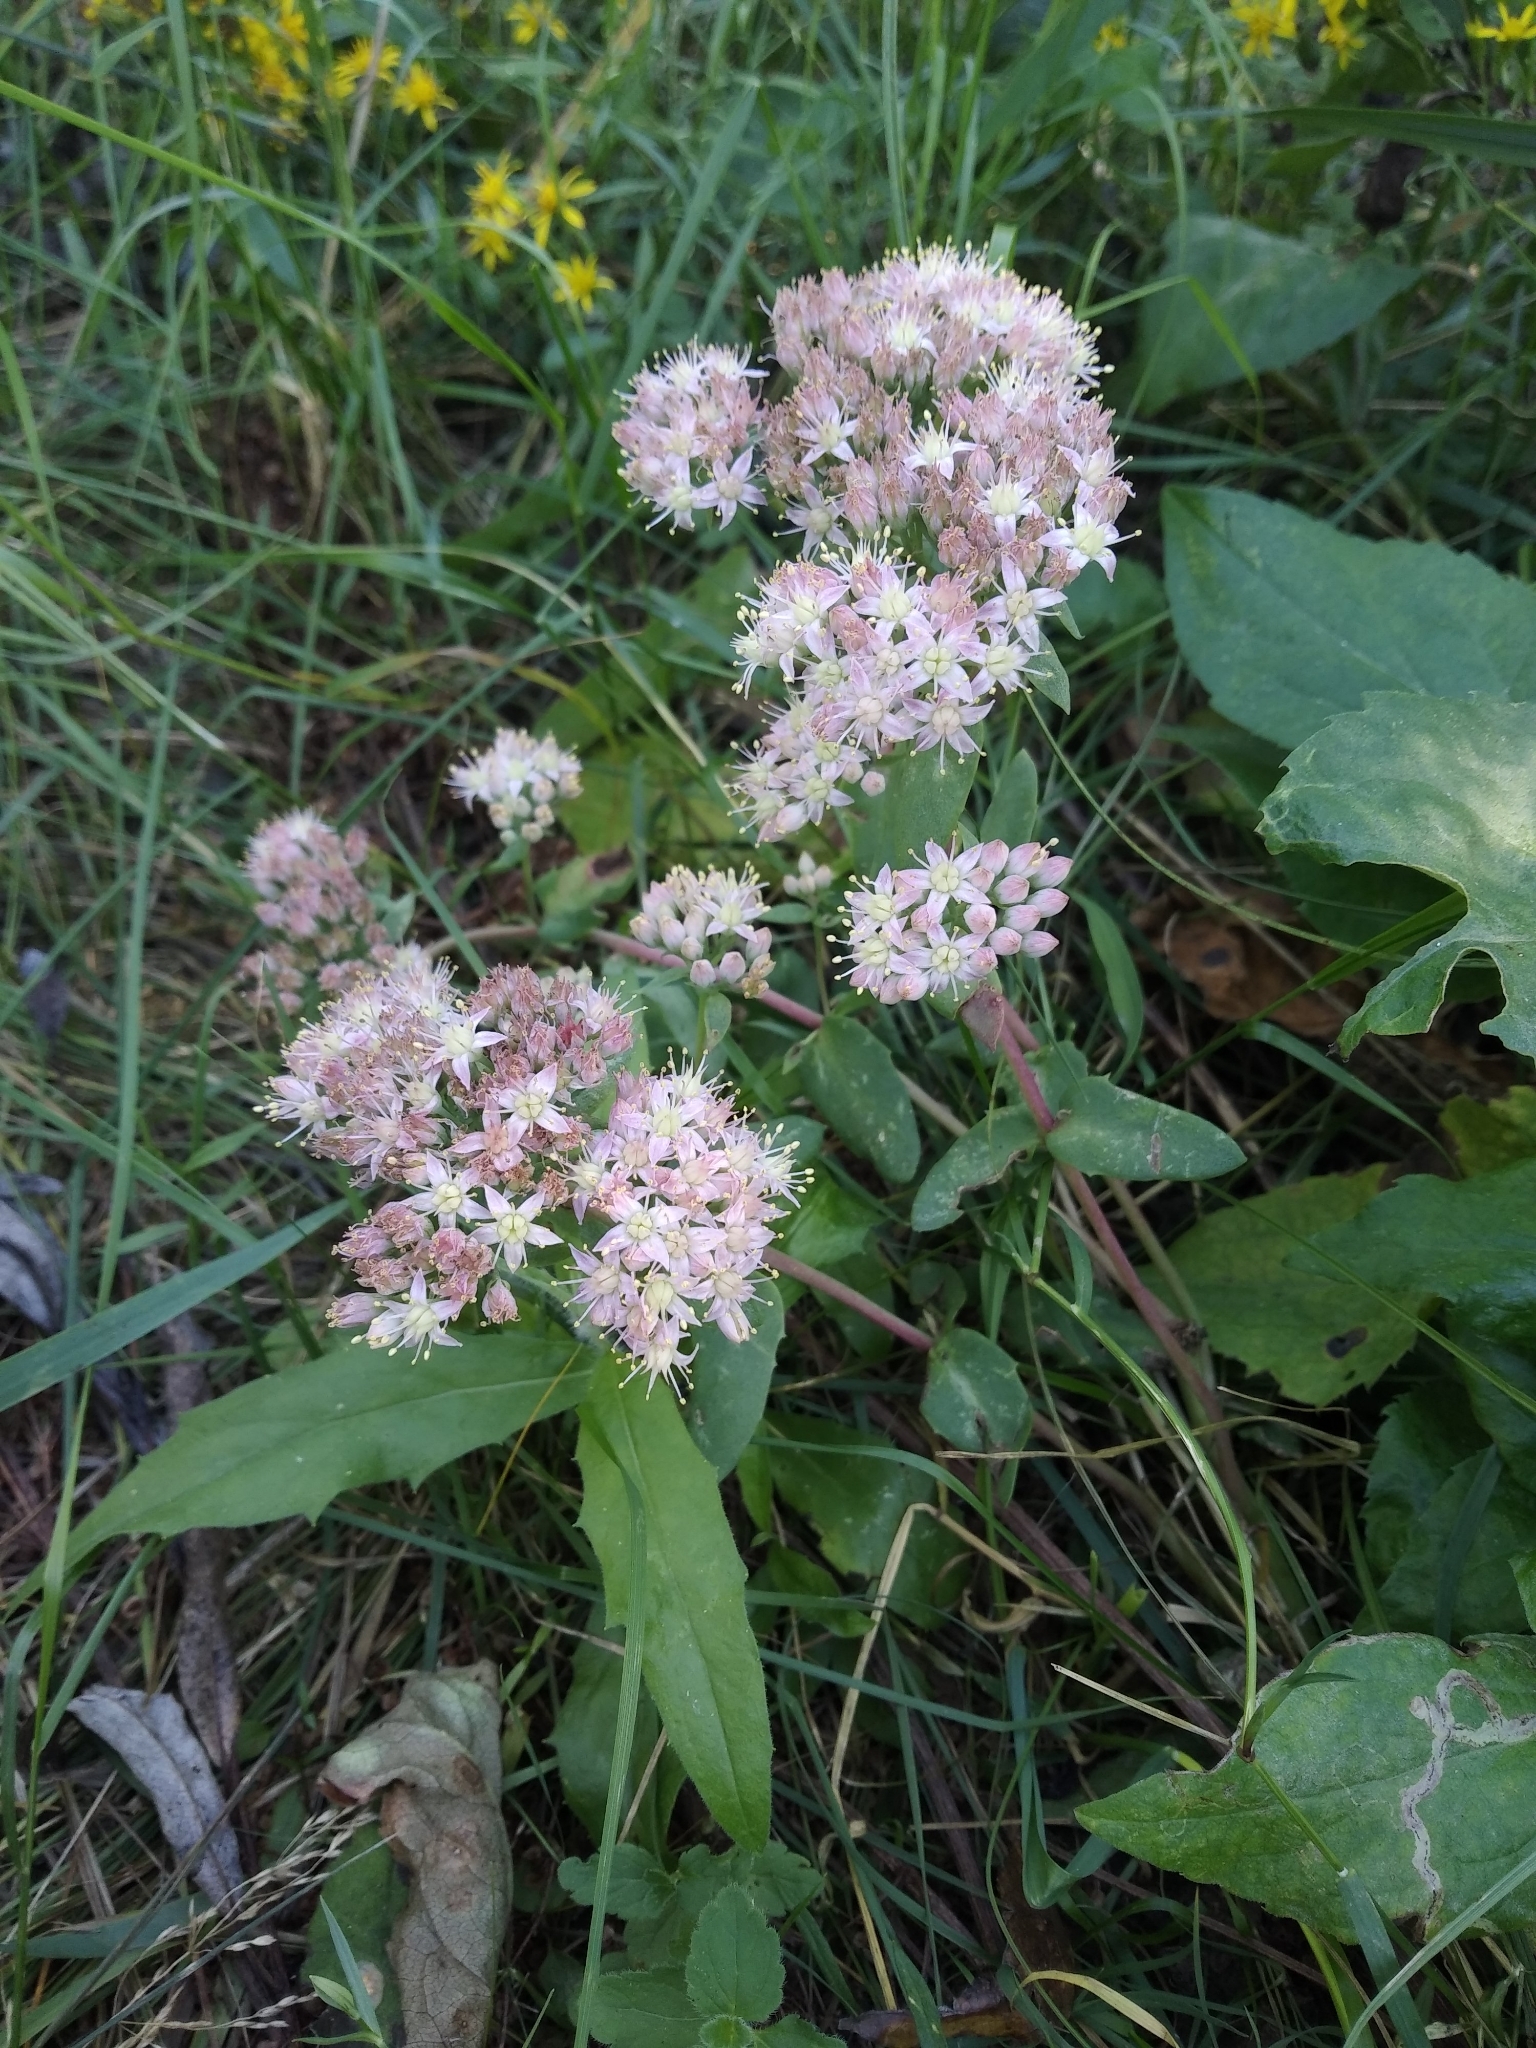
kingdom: Plantae
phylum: Tracheophyta
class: Magnoliopsida
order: Saxifragales
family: Crassulaceae
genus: Hylotelephium
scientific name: Hylotelephium maximum
